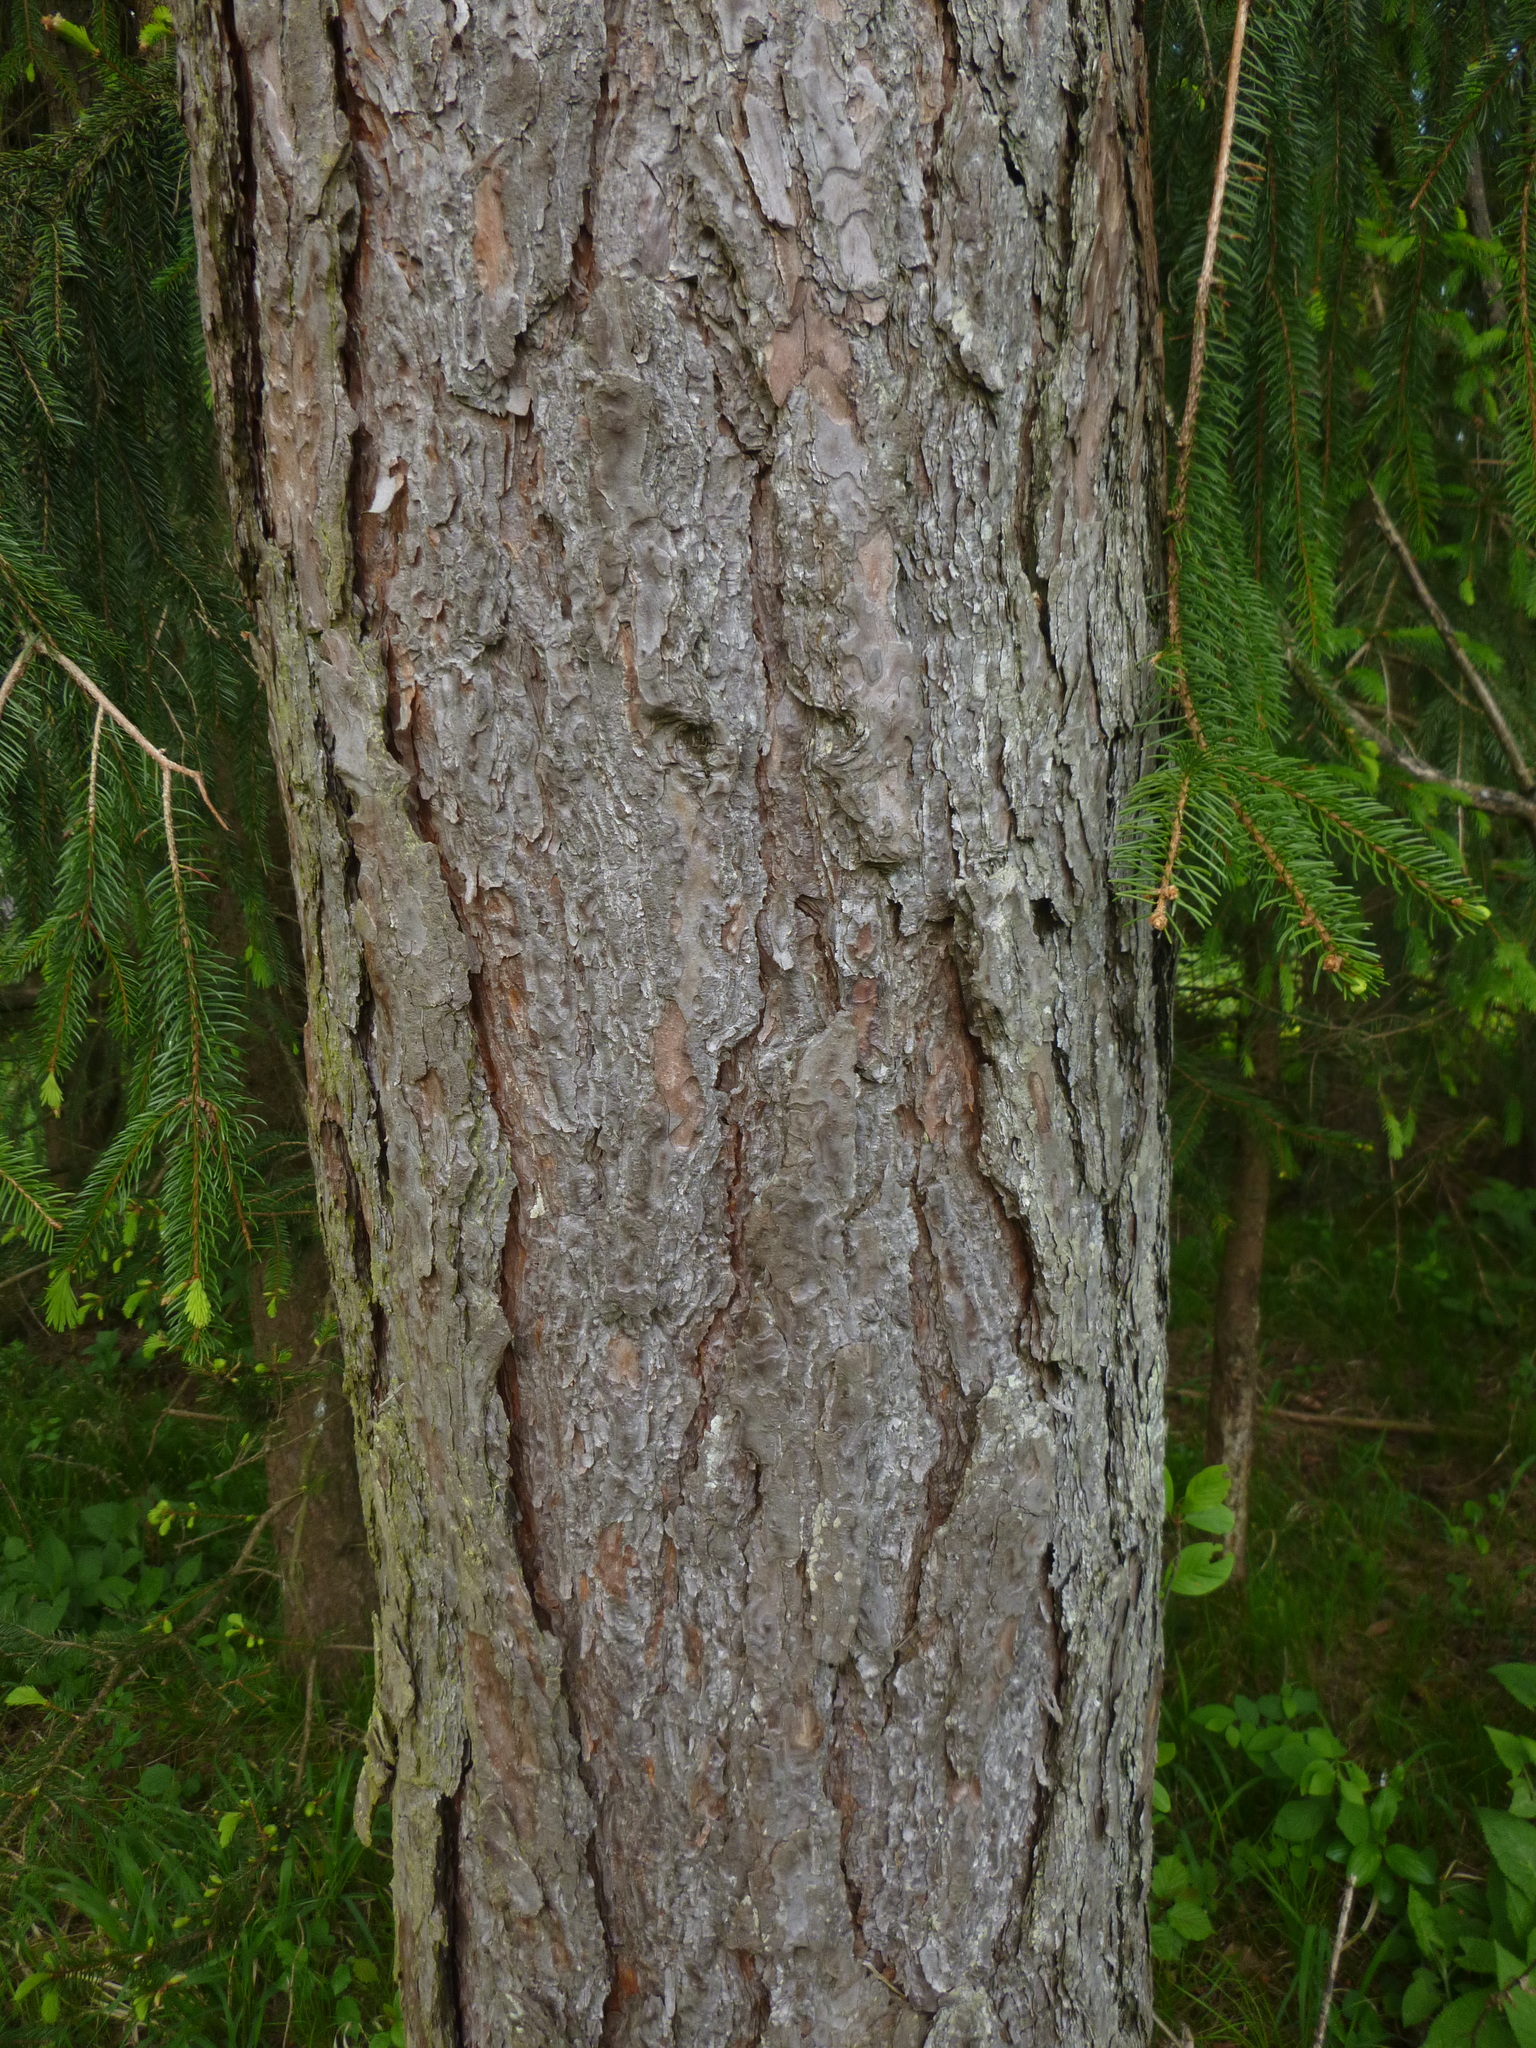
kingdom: Plantae
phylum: Tracheophyta
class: Pinopsida
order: Pinales
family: Pinaceae
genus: Pinus
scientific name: Pinus sylvestris
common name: Scots pine
